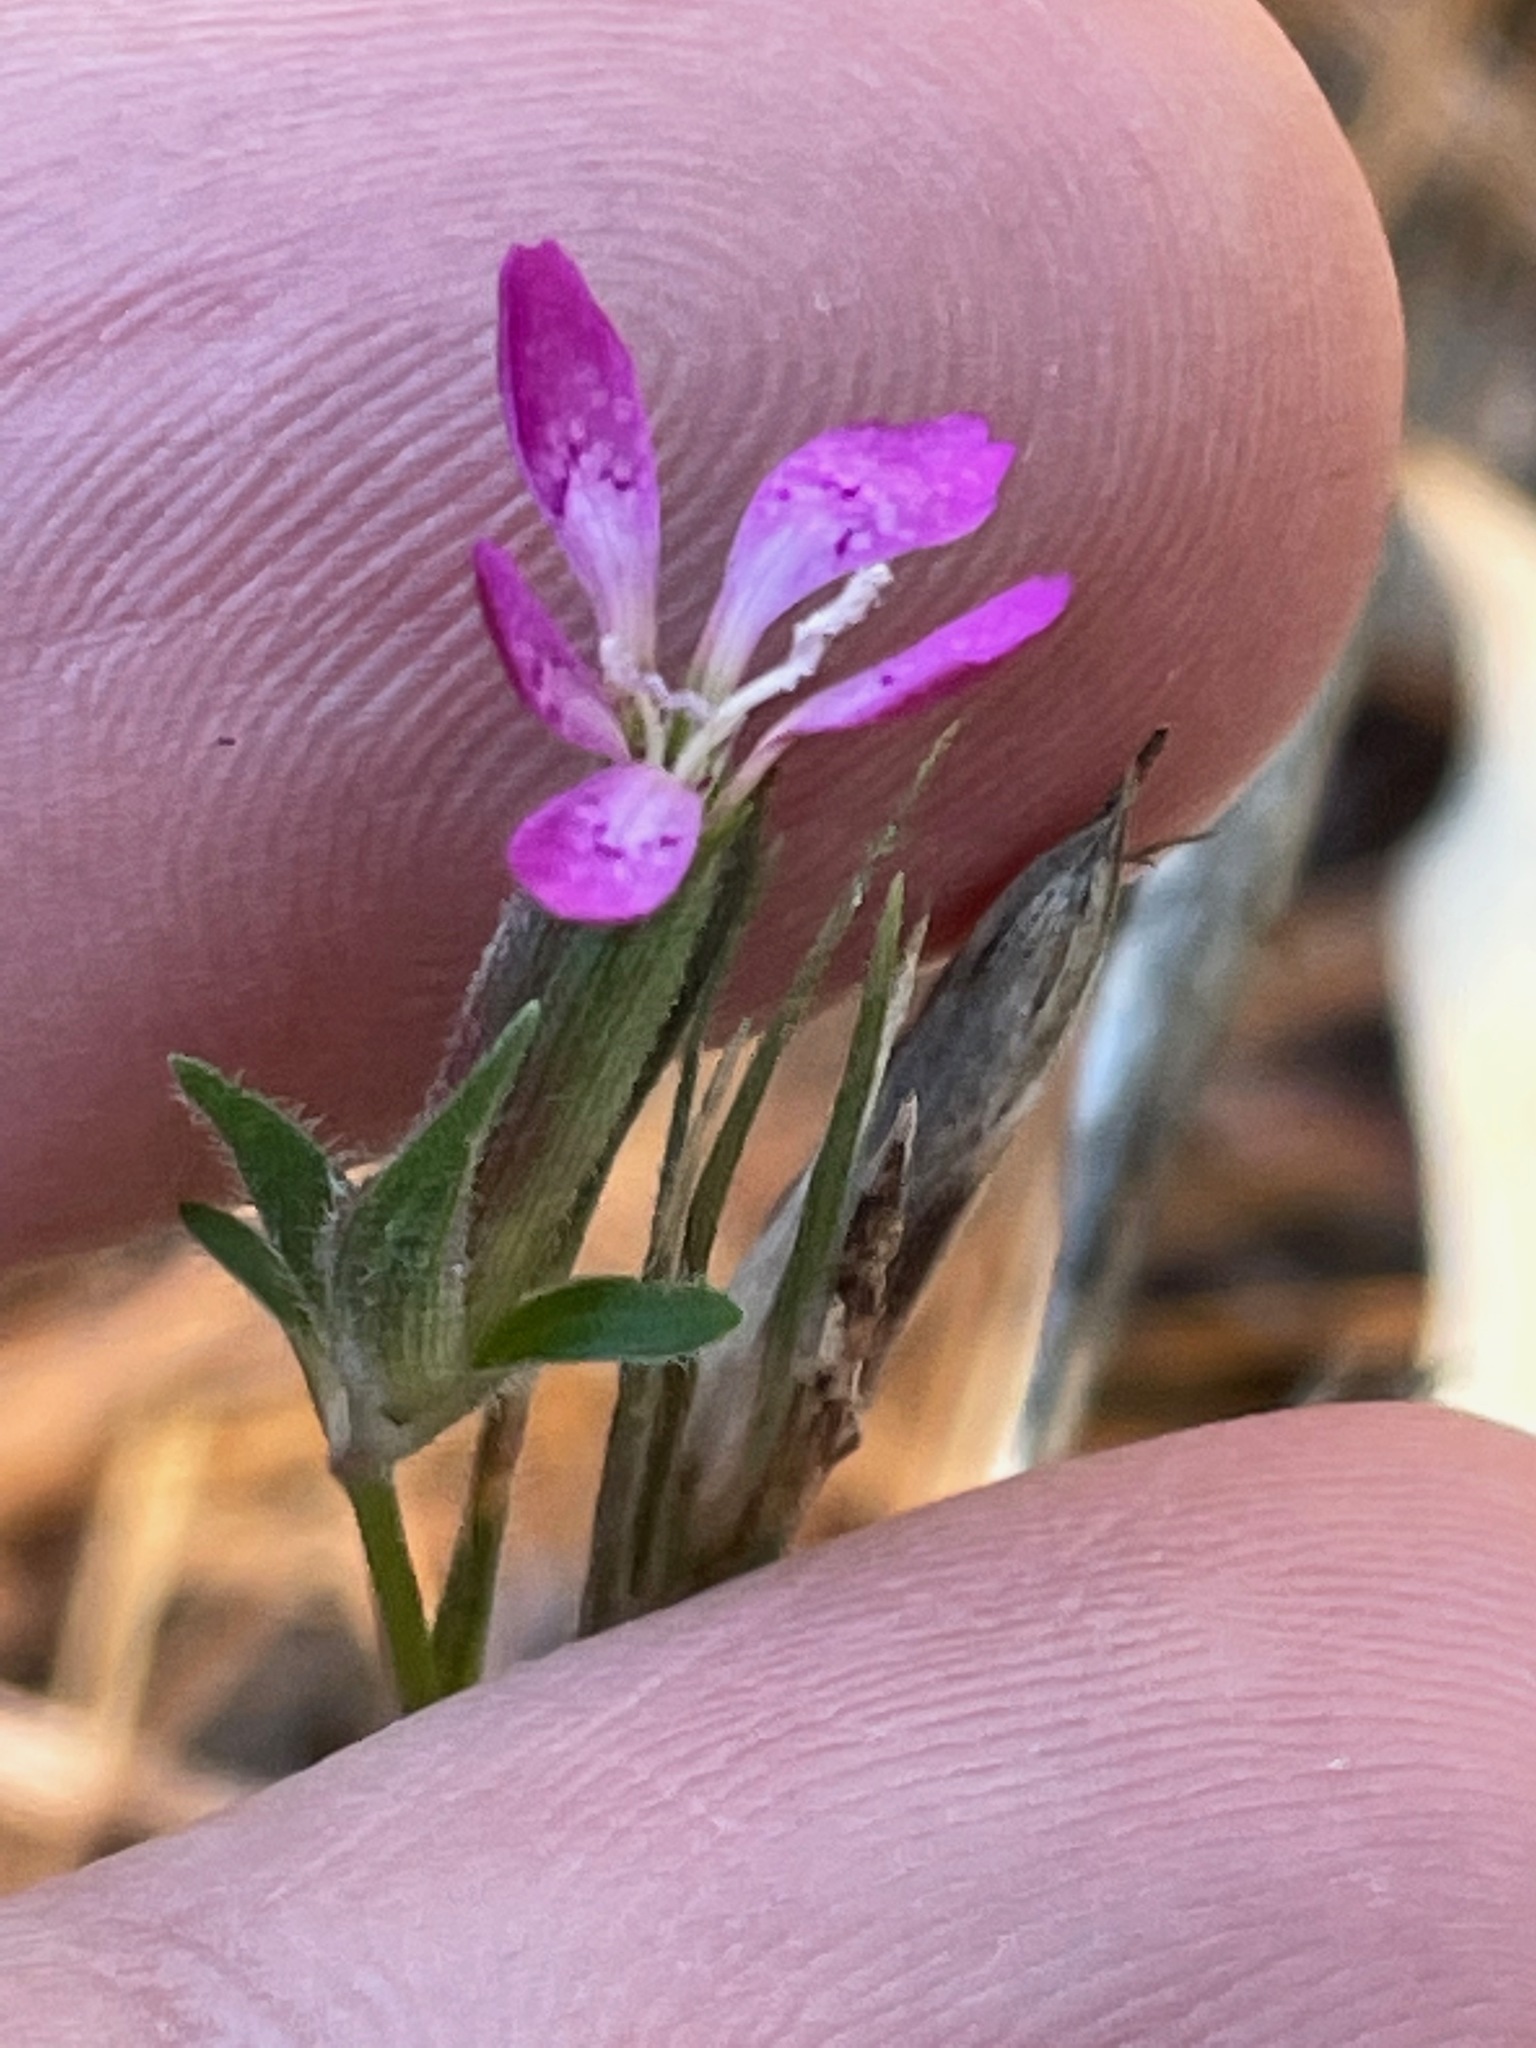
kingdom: Plantae
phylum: Tracheophyta
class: Magnoliopsida
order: Caryophyllales
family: Caryophyllaceae
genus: Dianthus
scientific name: Dianthus armeria
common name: Deptford pink
